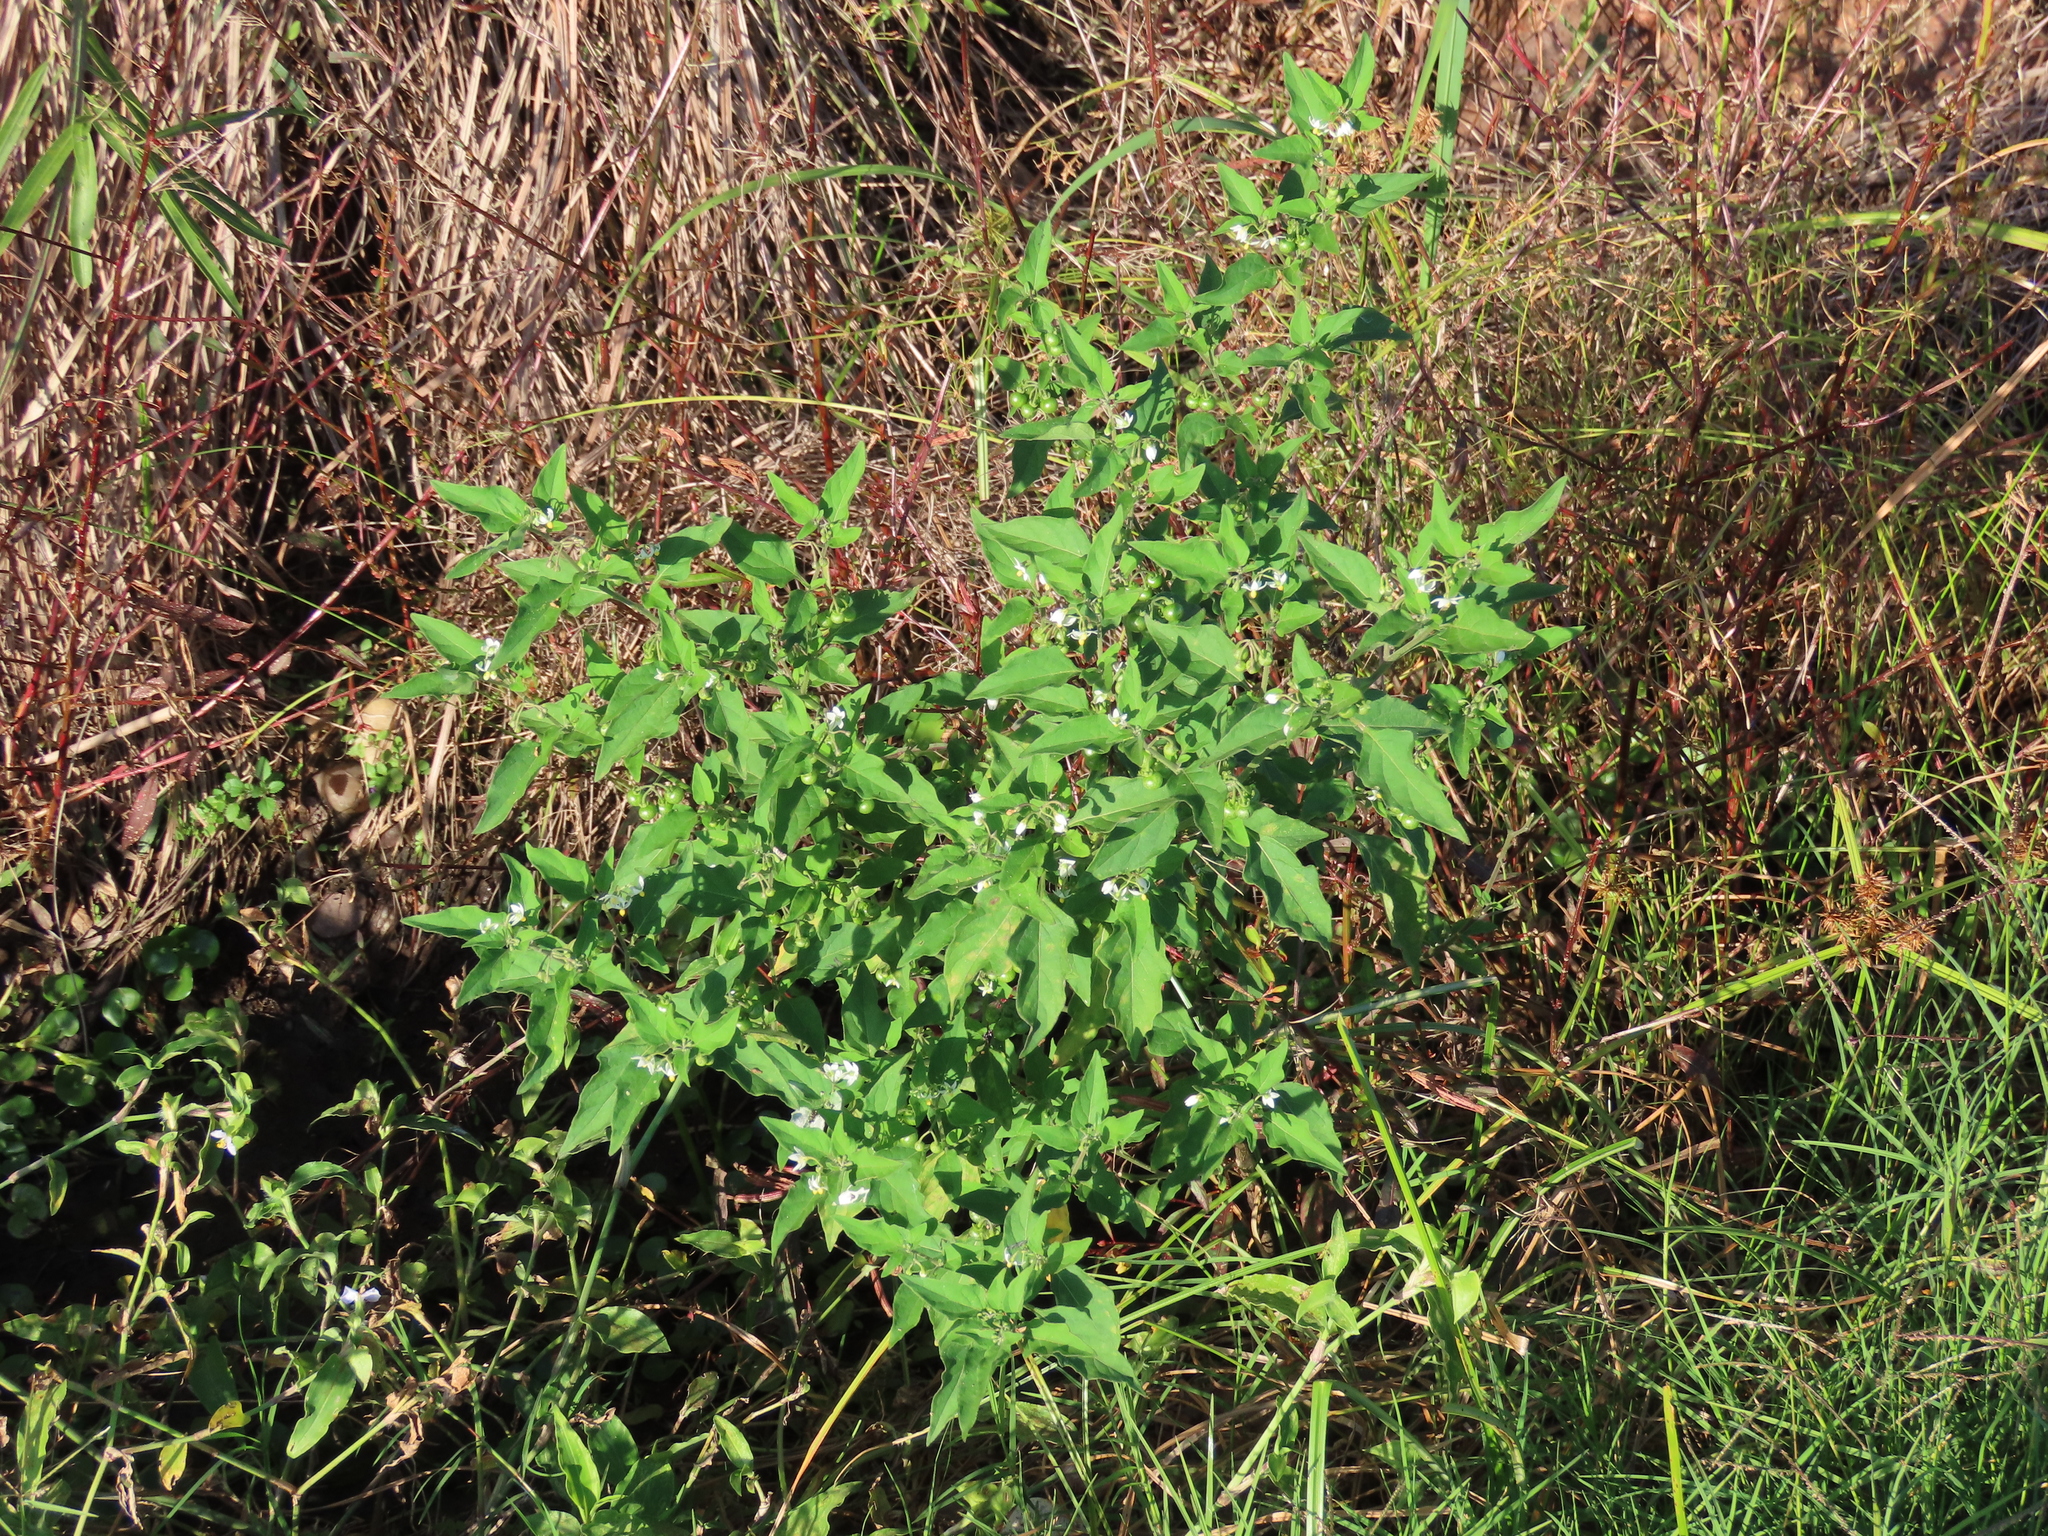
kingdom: Plantae
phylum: Tracheophyta
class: Magnoliopsida
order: Solanales
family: Solanaceae
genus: Solanum
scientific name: Solanum americanum
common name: American black nightshade
